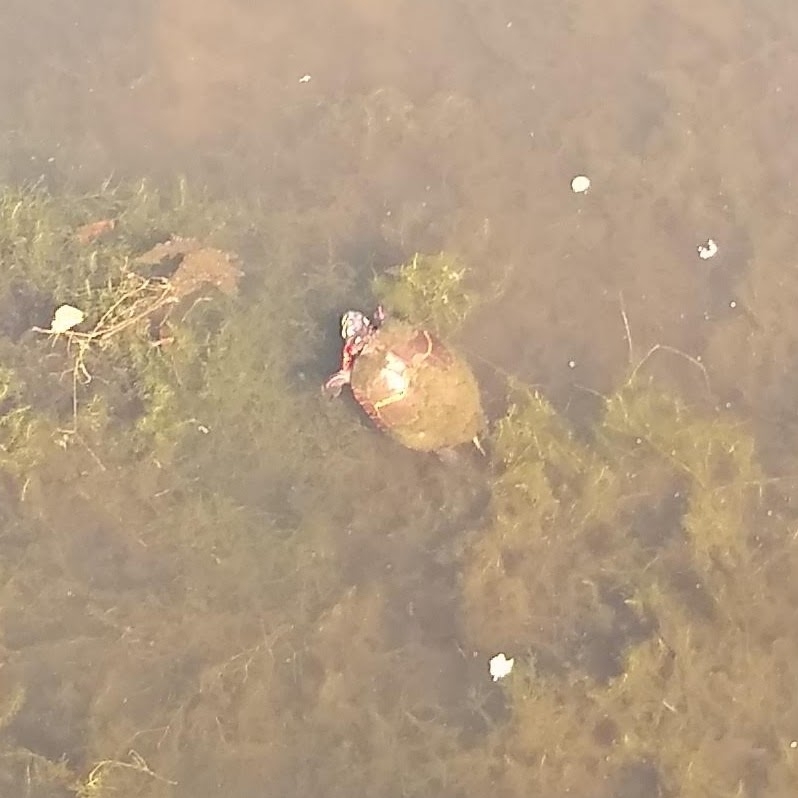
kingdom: Animalia
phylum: Chordata
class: Testudines
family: Emydidae
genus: Chrysemys
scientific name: Chrysemys picta
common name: Painted turtle
